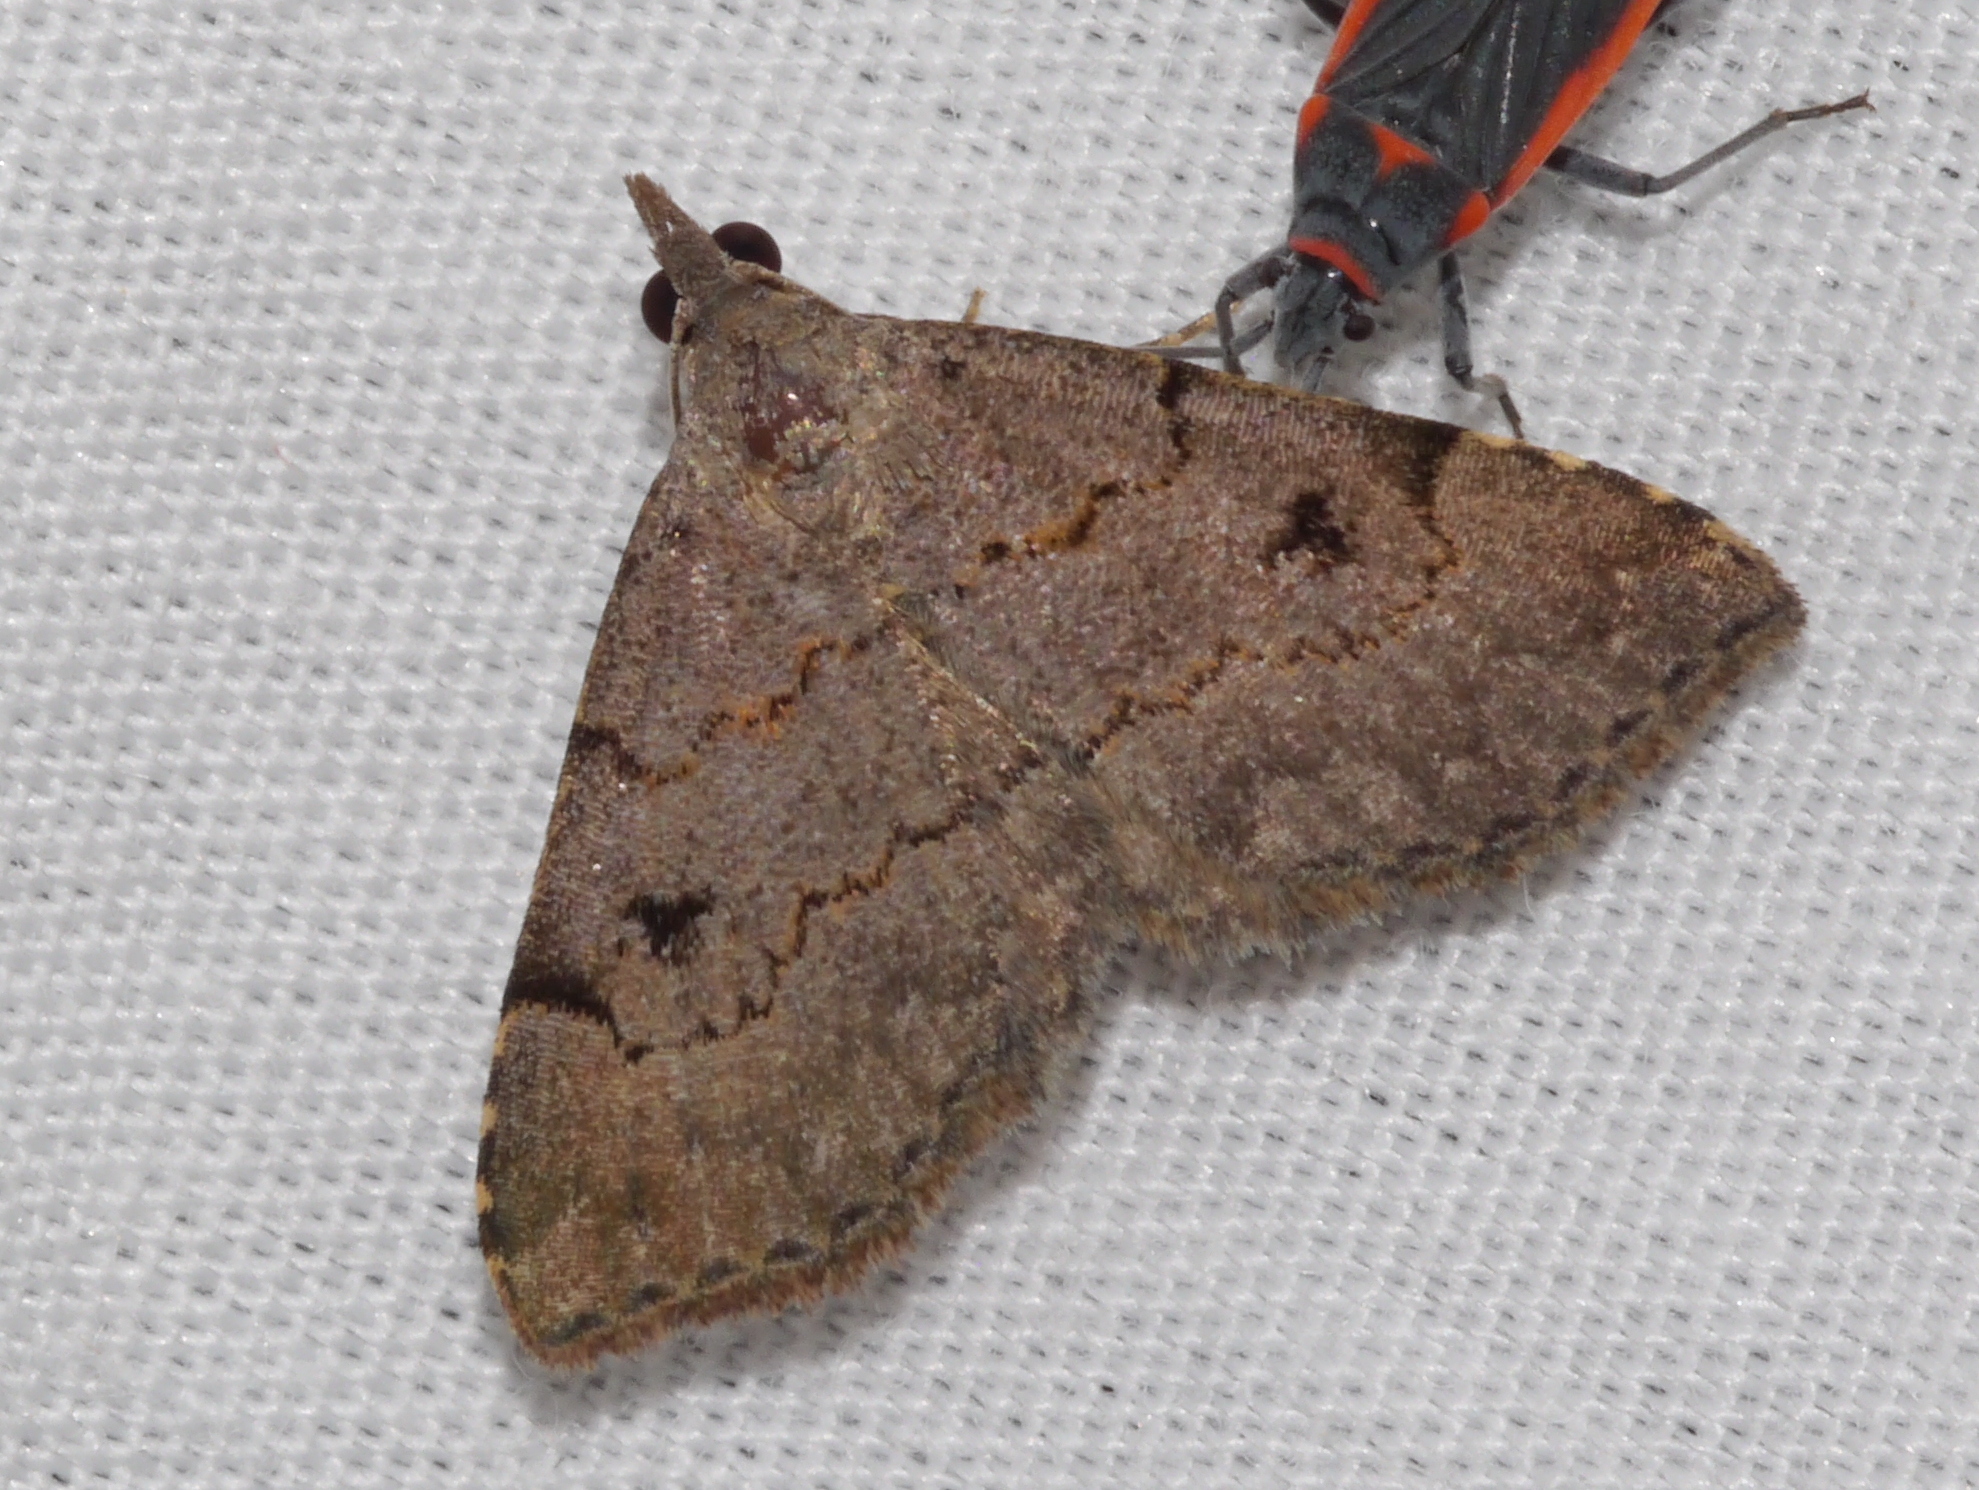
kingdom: Animalia
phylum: Arthropoda
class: Insecta
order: Lepidoptera
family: Erebidae
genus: Nychioptera
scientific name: Nychioptera noctuidalis
